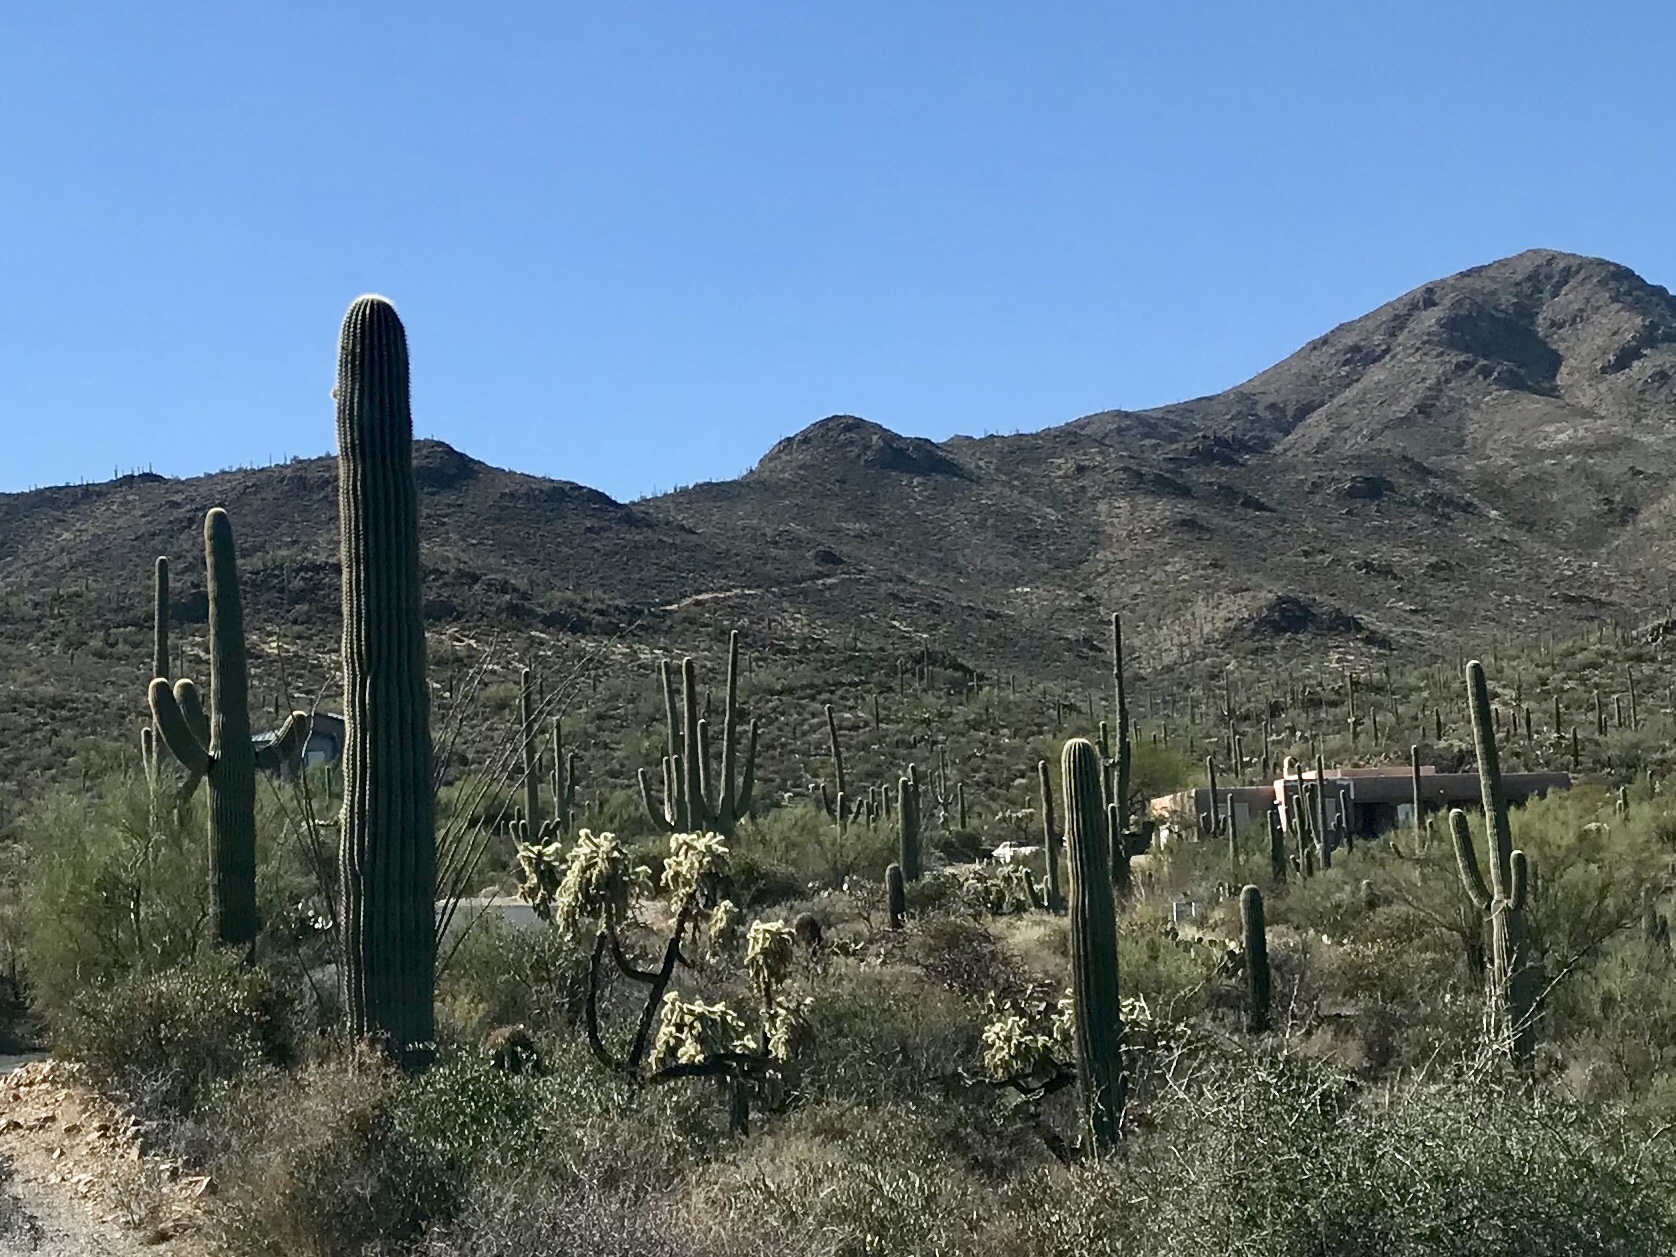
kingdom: Plantae
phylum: Tracheophyta
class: Magnoliopsida
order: Caryophyllales
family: Cactaceae
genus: Carnegiea
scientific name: Carnegiea gigantea
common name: Saguaro
